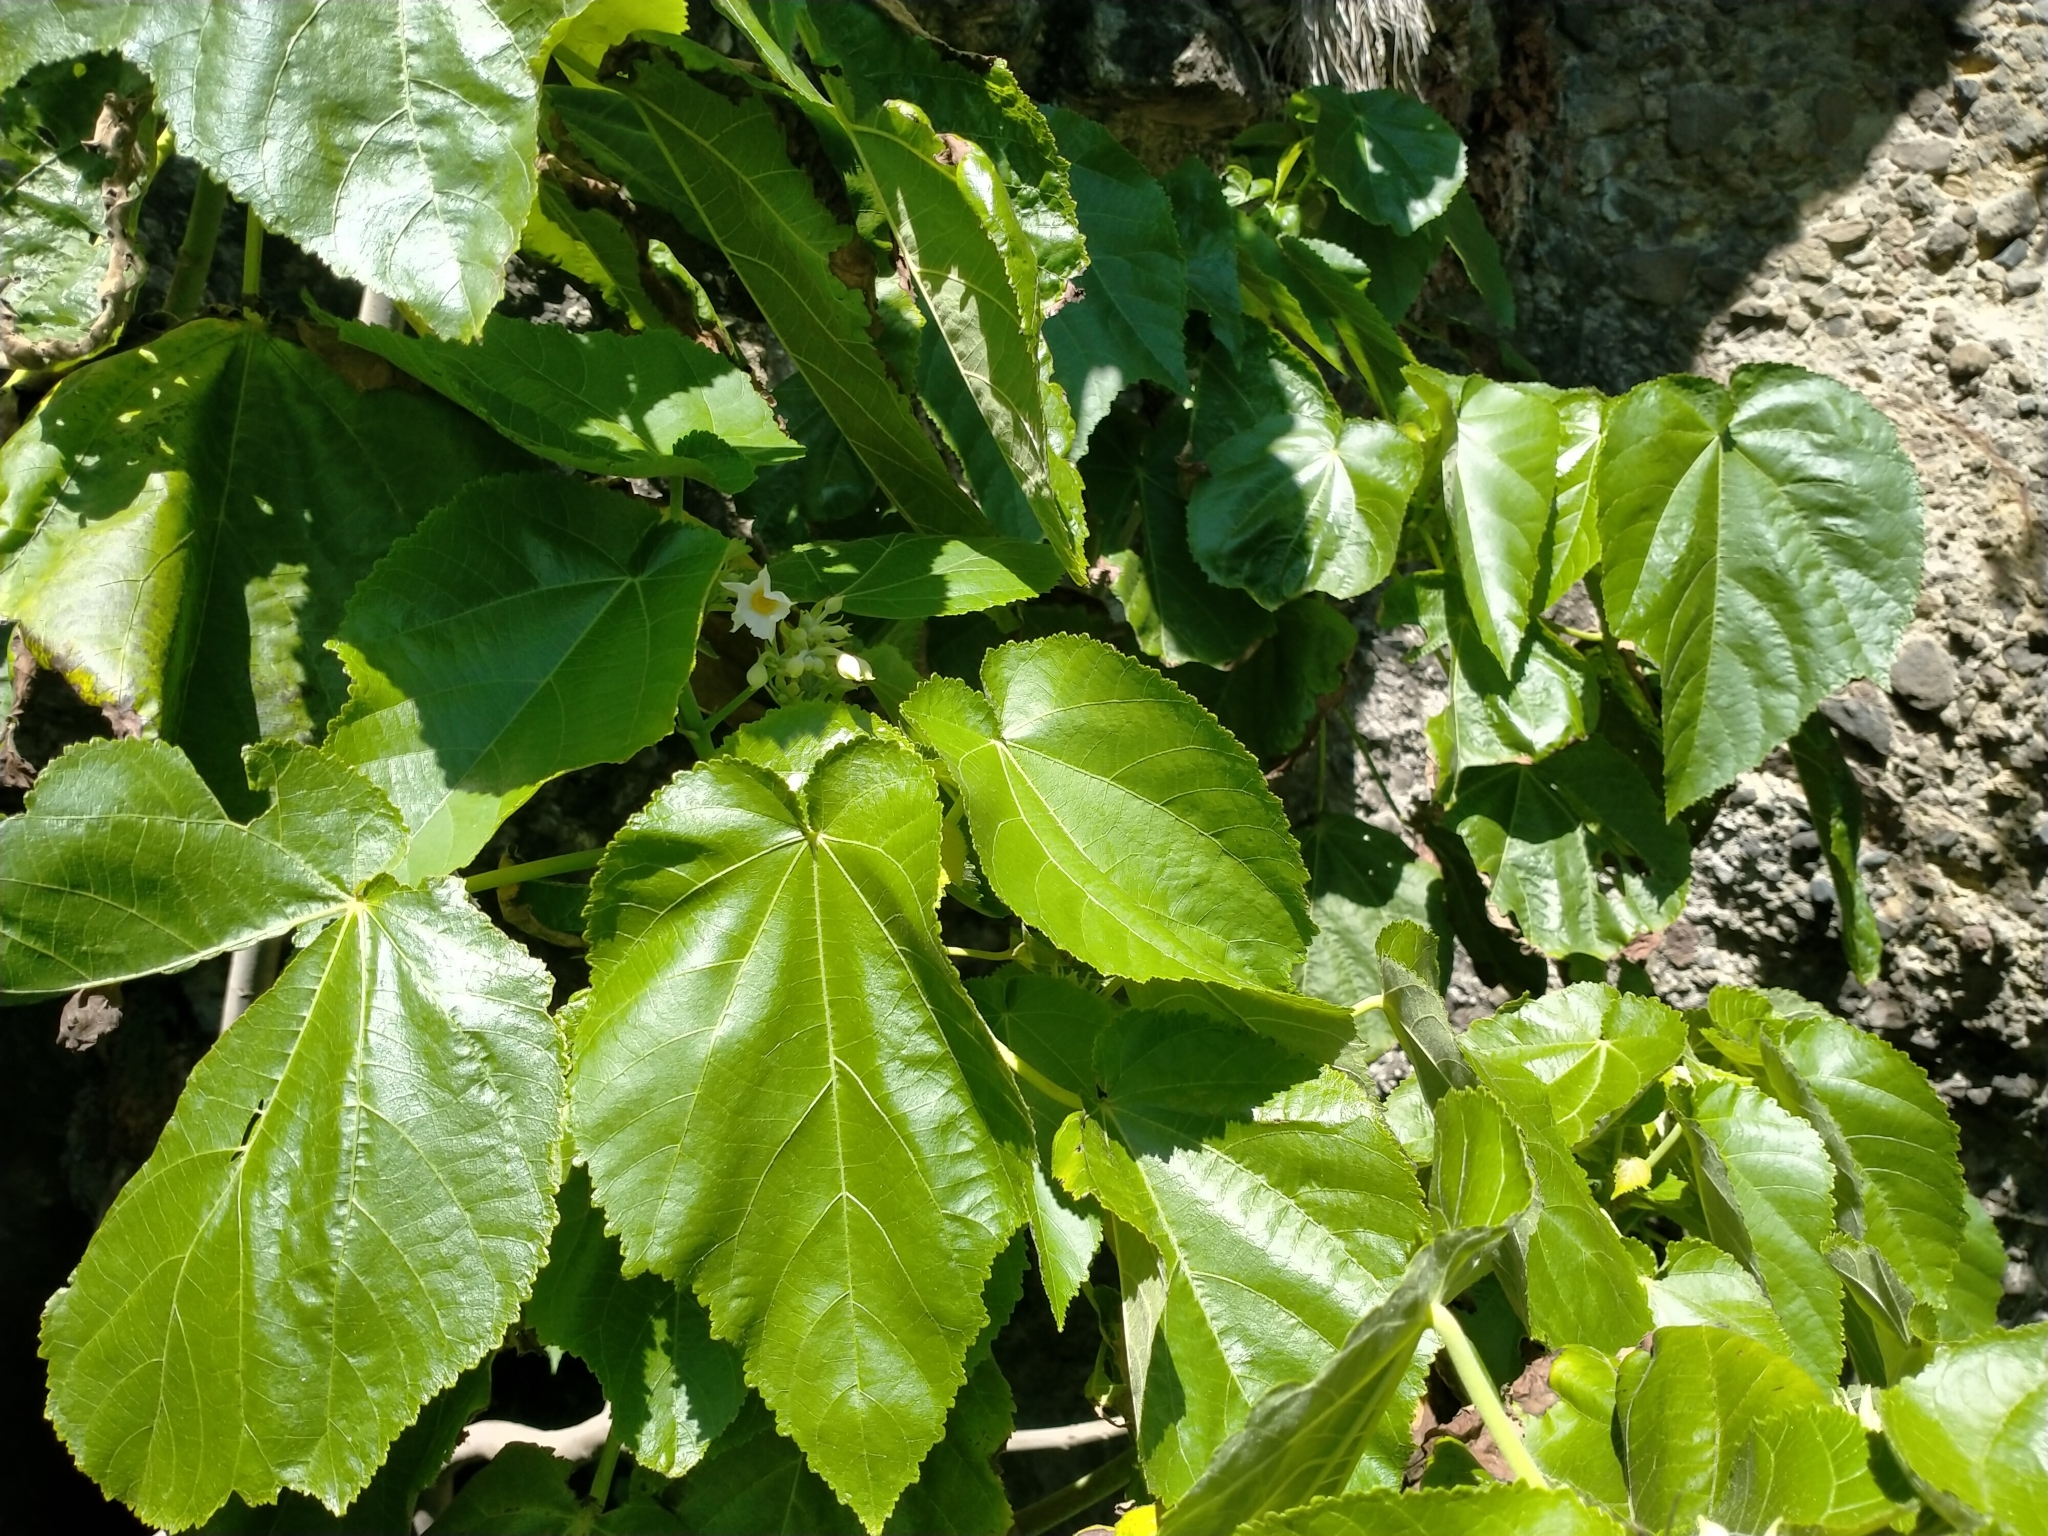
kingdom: Plantae
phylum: Tracheophyta
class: Magnoliopsida
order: Malvales
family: Malvaceae
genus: Entelea
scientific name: Entelea arborescens
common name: New zealand-mulberry
